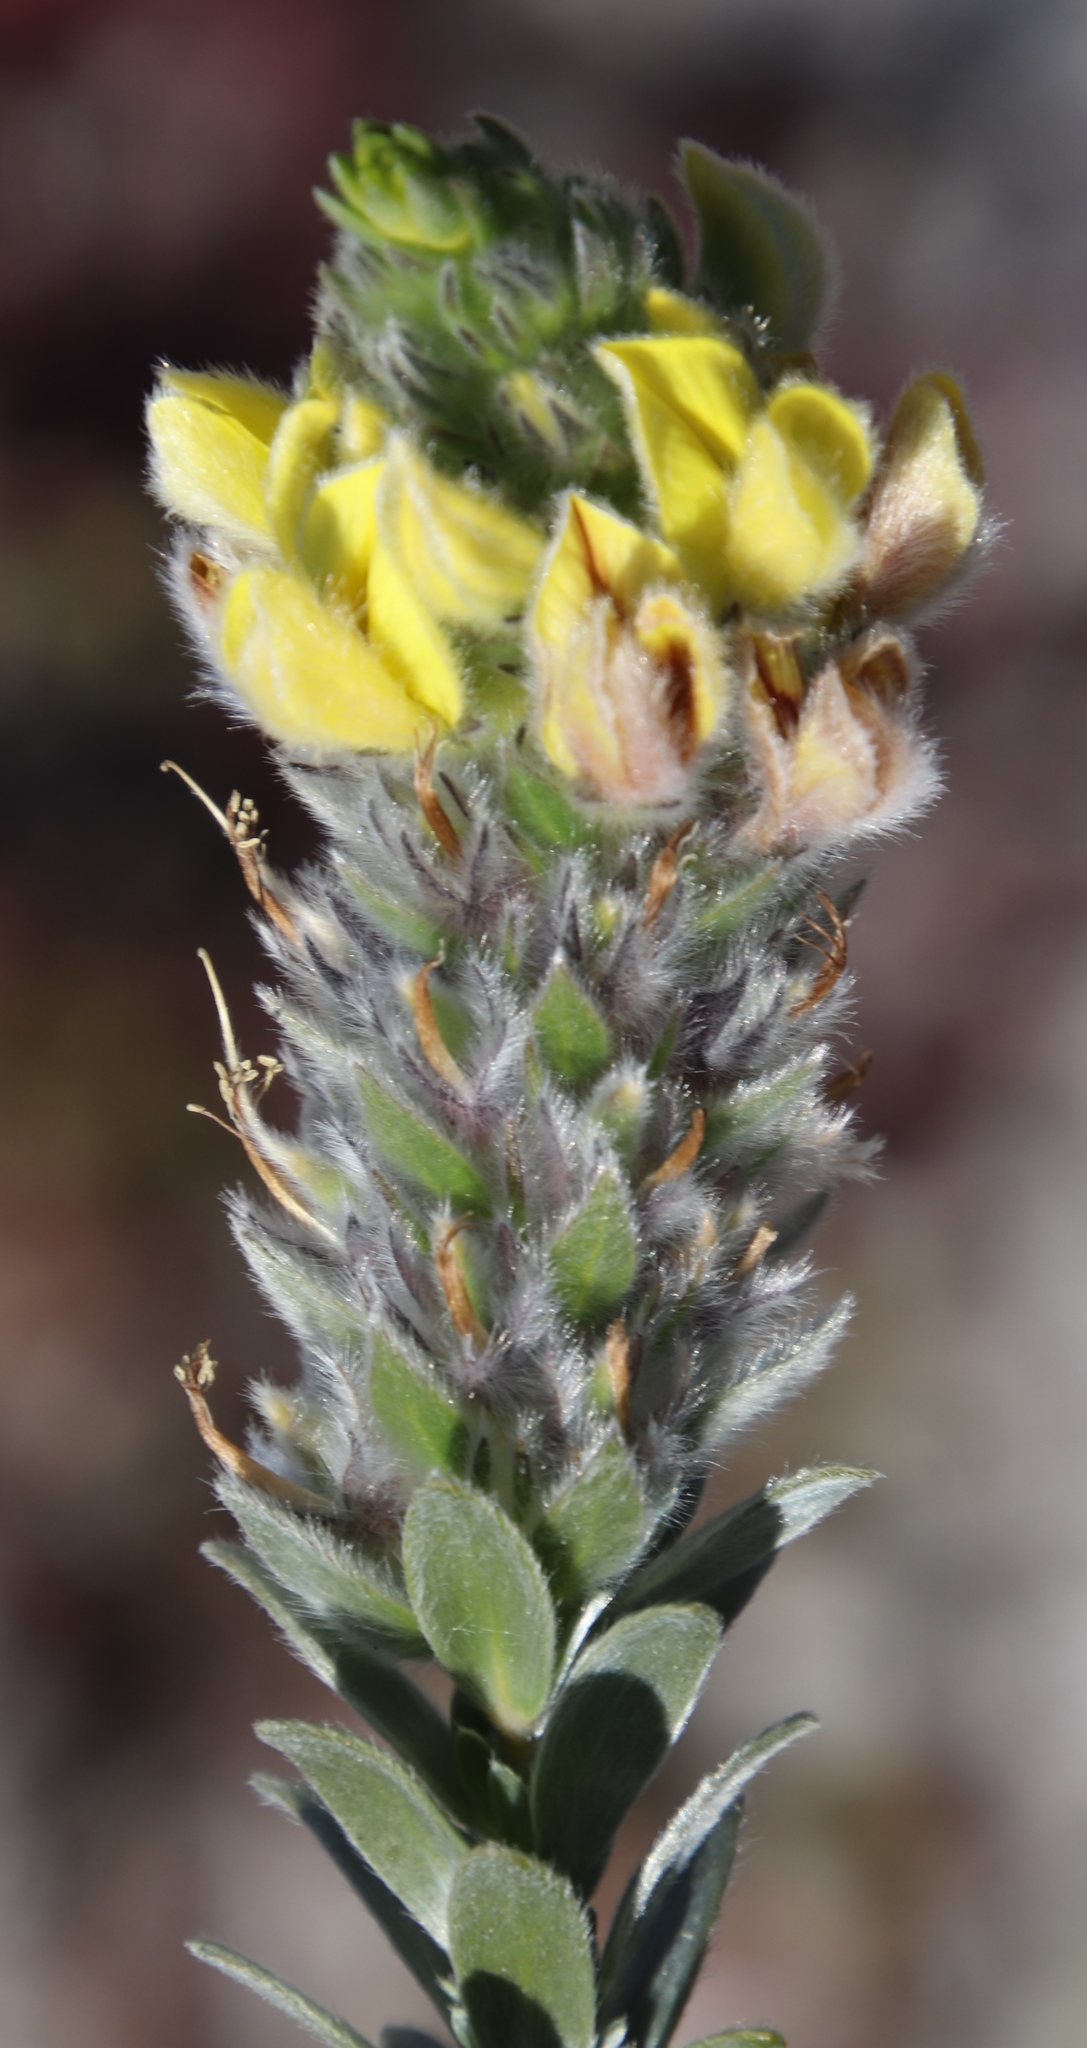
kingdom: Plantae
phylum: Tracheophyta
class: Magnoliopsida
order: Fabales
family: Fabaceae
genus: Aspalathus
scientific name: Aspalathus sericea
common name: Silky pea
